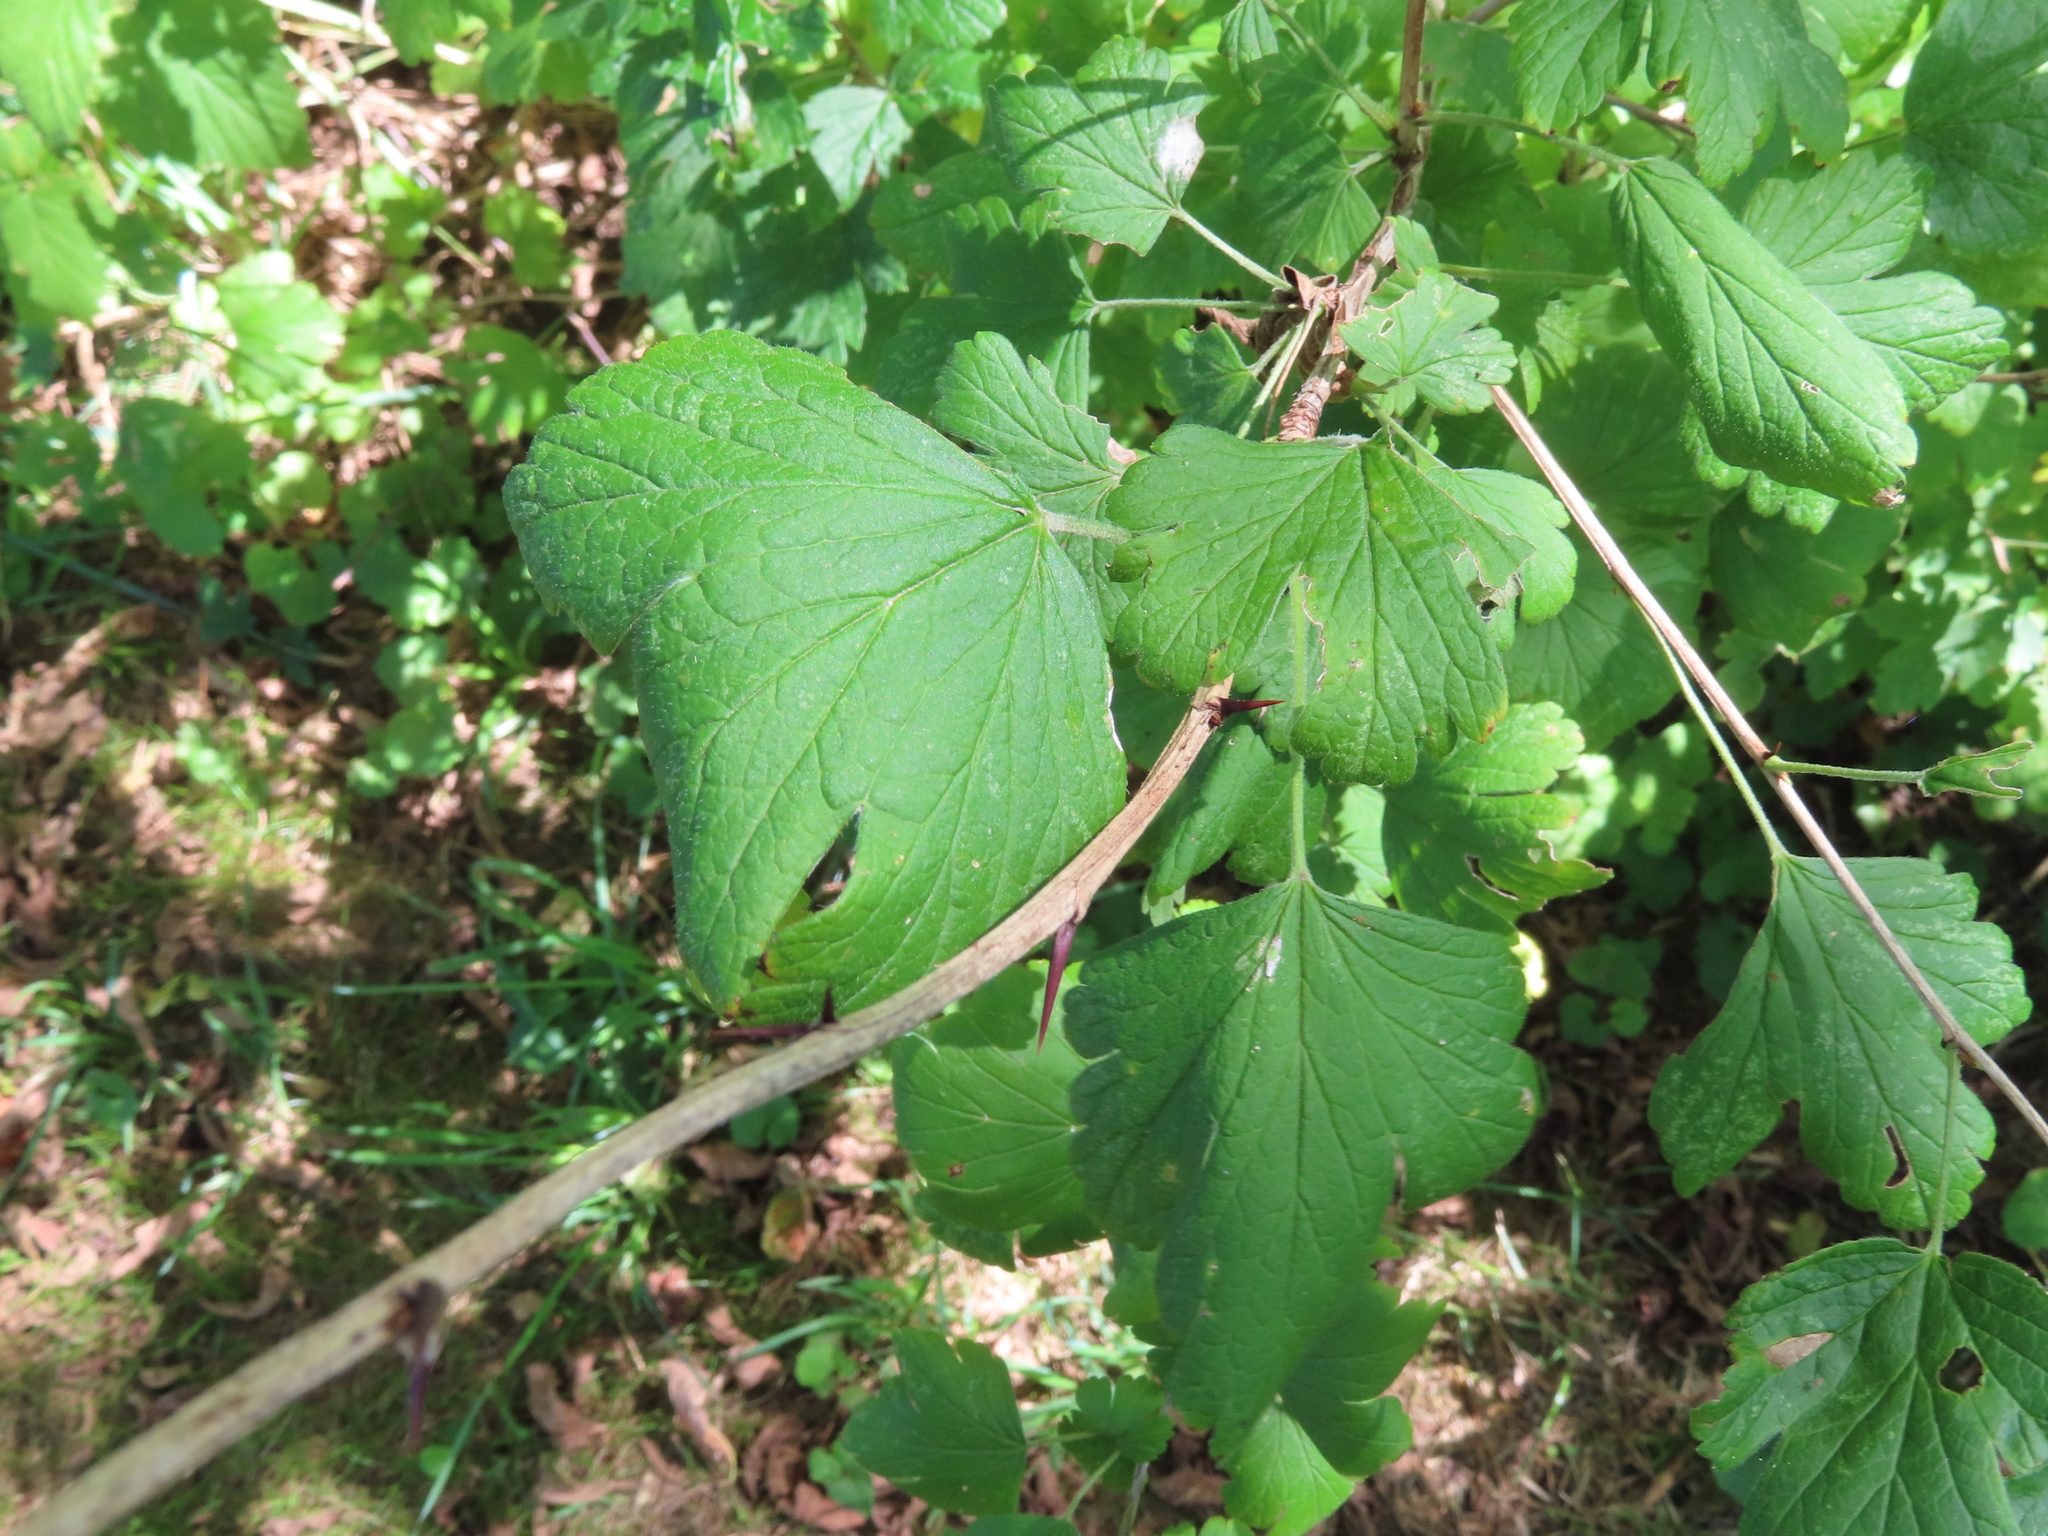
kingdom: Plantae
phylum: Tracheophyta
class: Magnoliopsida
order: Saxifragales
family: Grossulariaceae
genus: Ribes
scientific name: Ribes americanum
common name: American black currant
